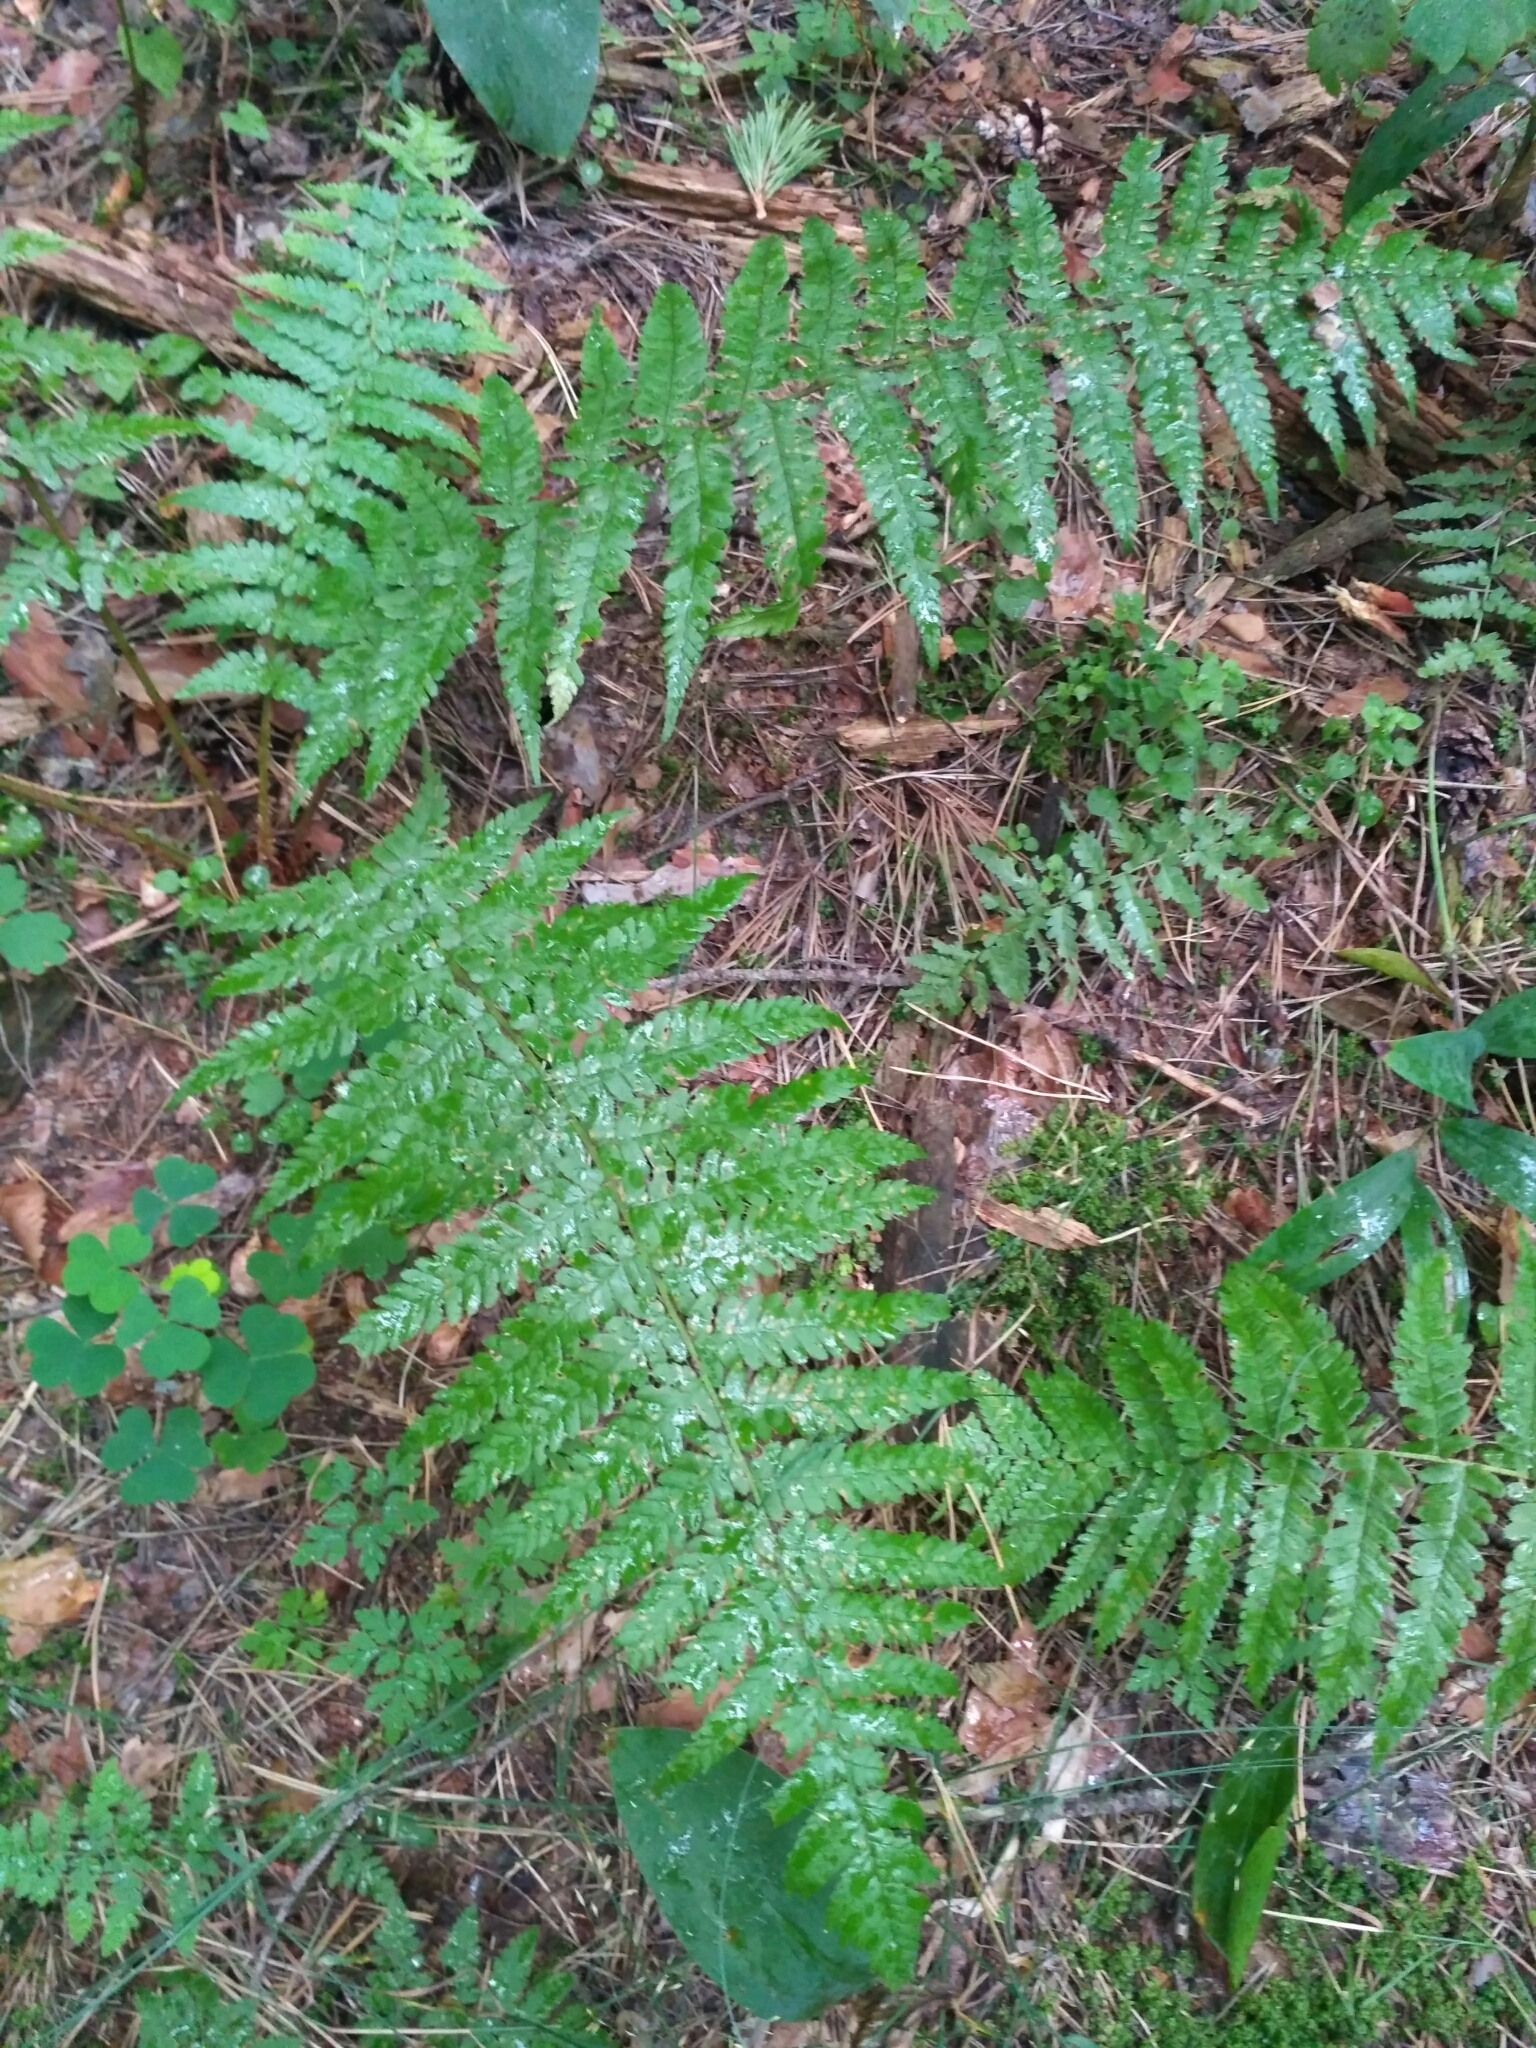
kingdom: Plantae
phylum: Tracheophyta
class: Polypodiopsida
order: Polypodiales
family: Dryopteridaceae
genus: Dryopteris
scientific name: Dryopteris filix-mas
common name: Male fern
